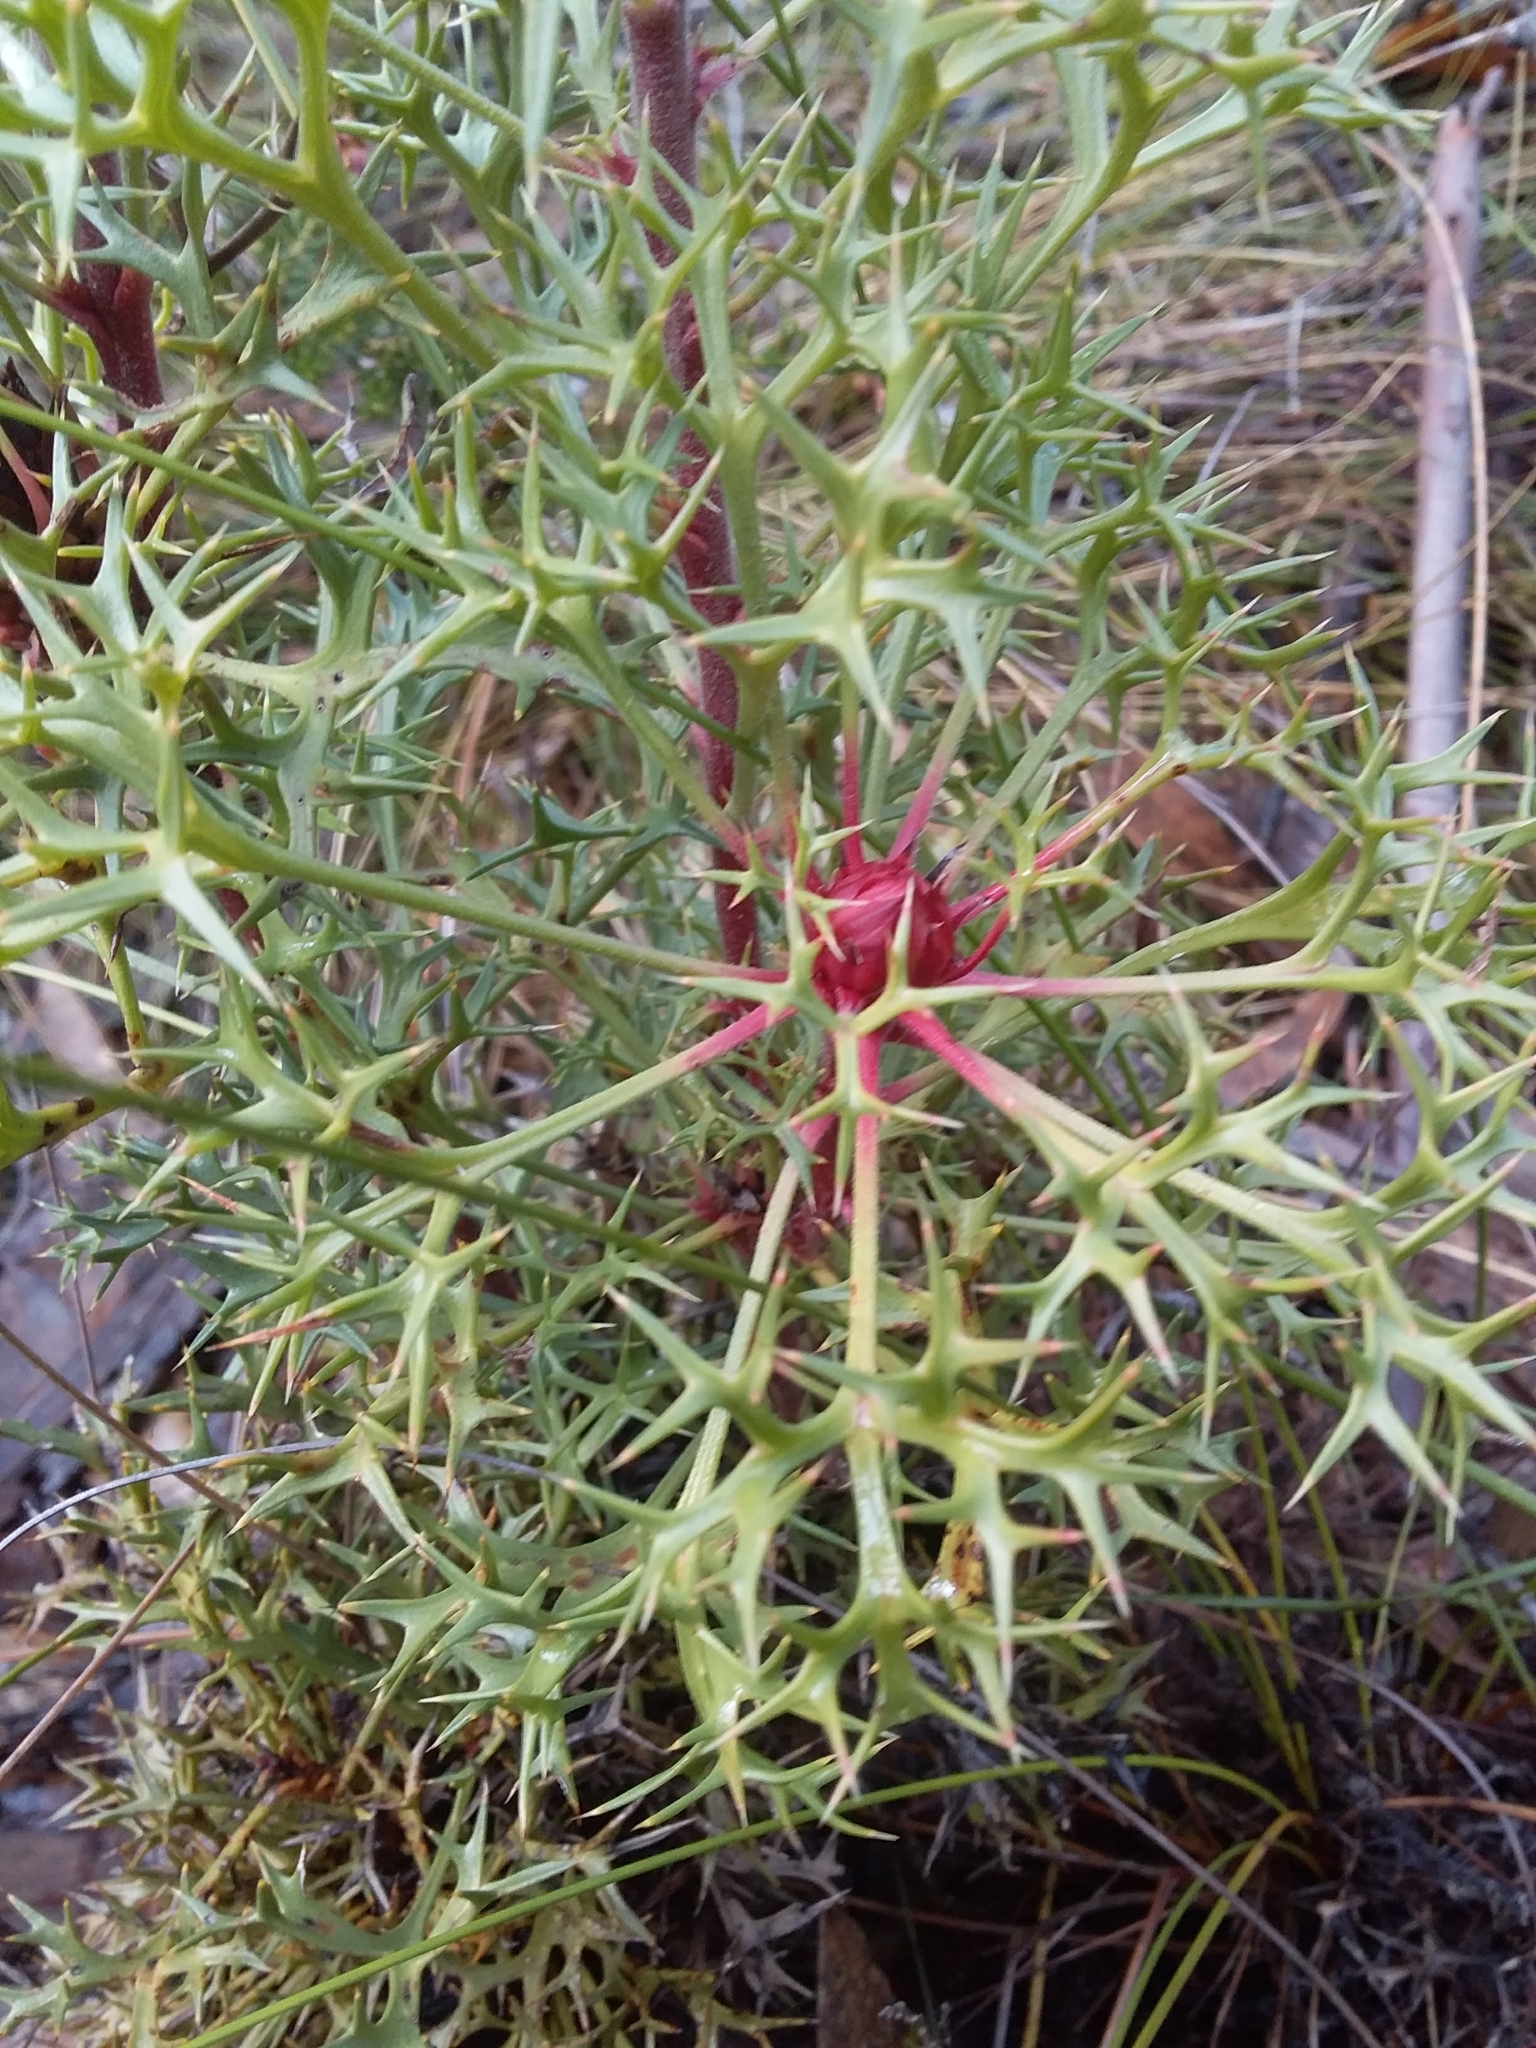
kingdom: Plantae
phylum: Tracheophyta
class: Magnoliopsida
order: Proteales
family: Proteaceae
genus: Isopogon
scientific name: Isopogon ceratophyllus
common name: Horny cone-bush
